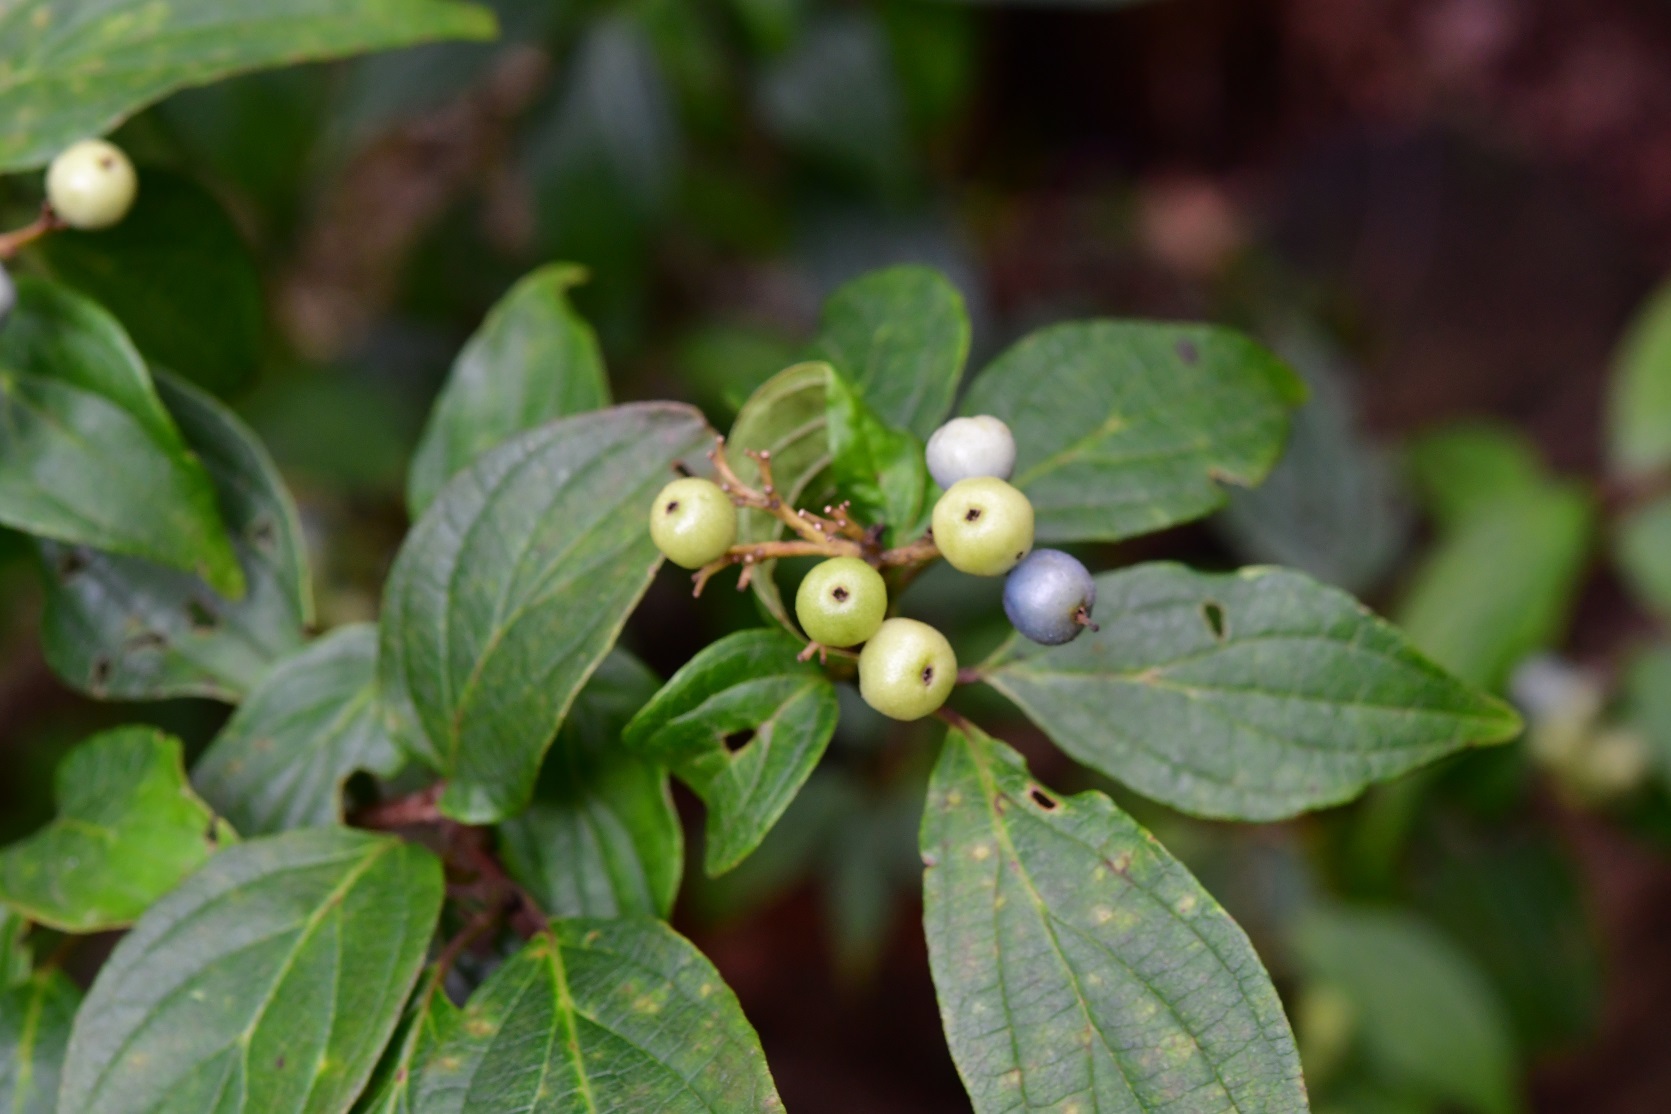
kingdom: Plantae
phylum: Tracheophyta
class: Magnoliopsida
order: Cornales
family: Cornaceae
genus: Cornus
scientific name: Cornus excelsa
